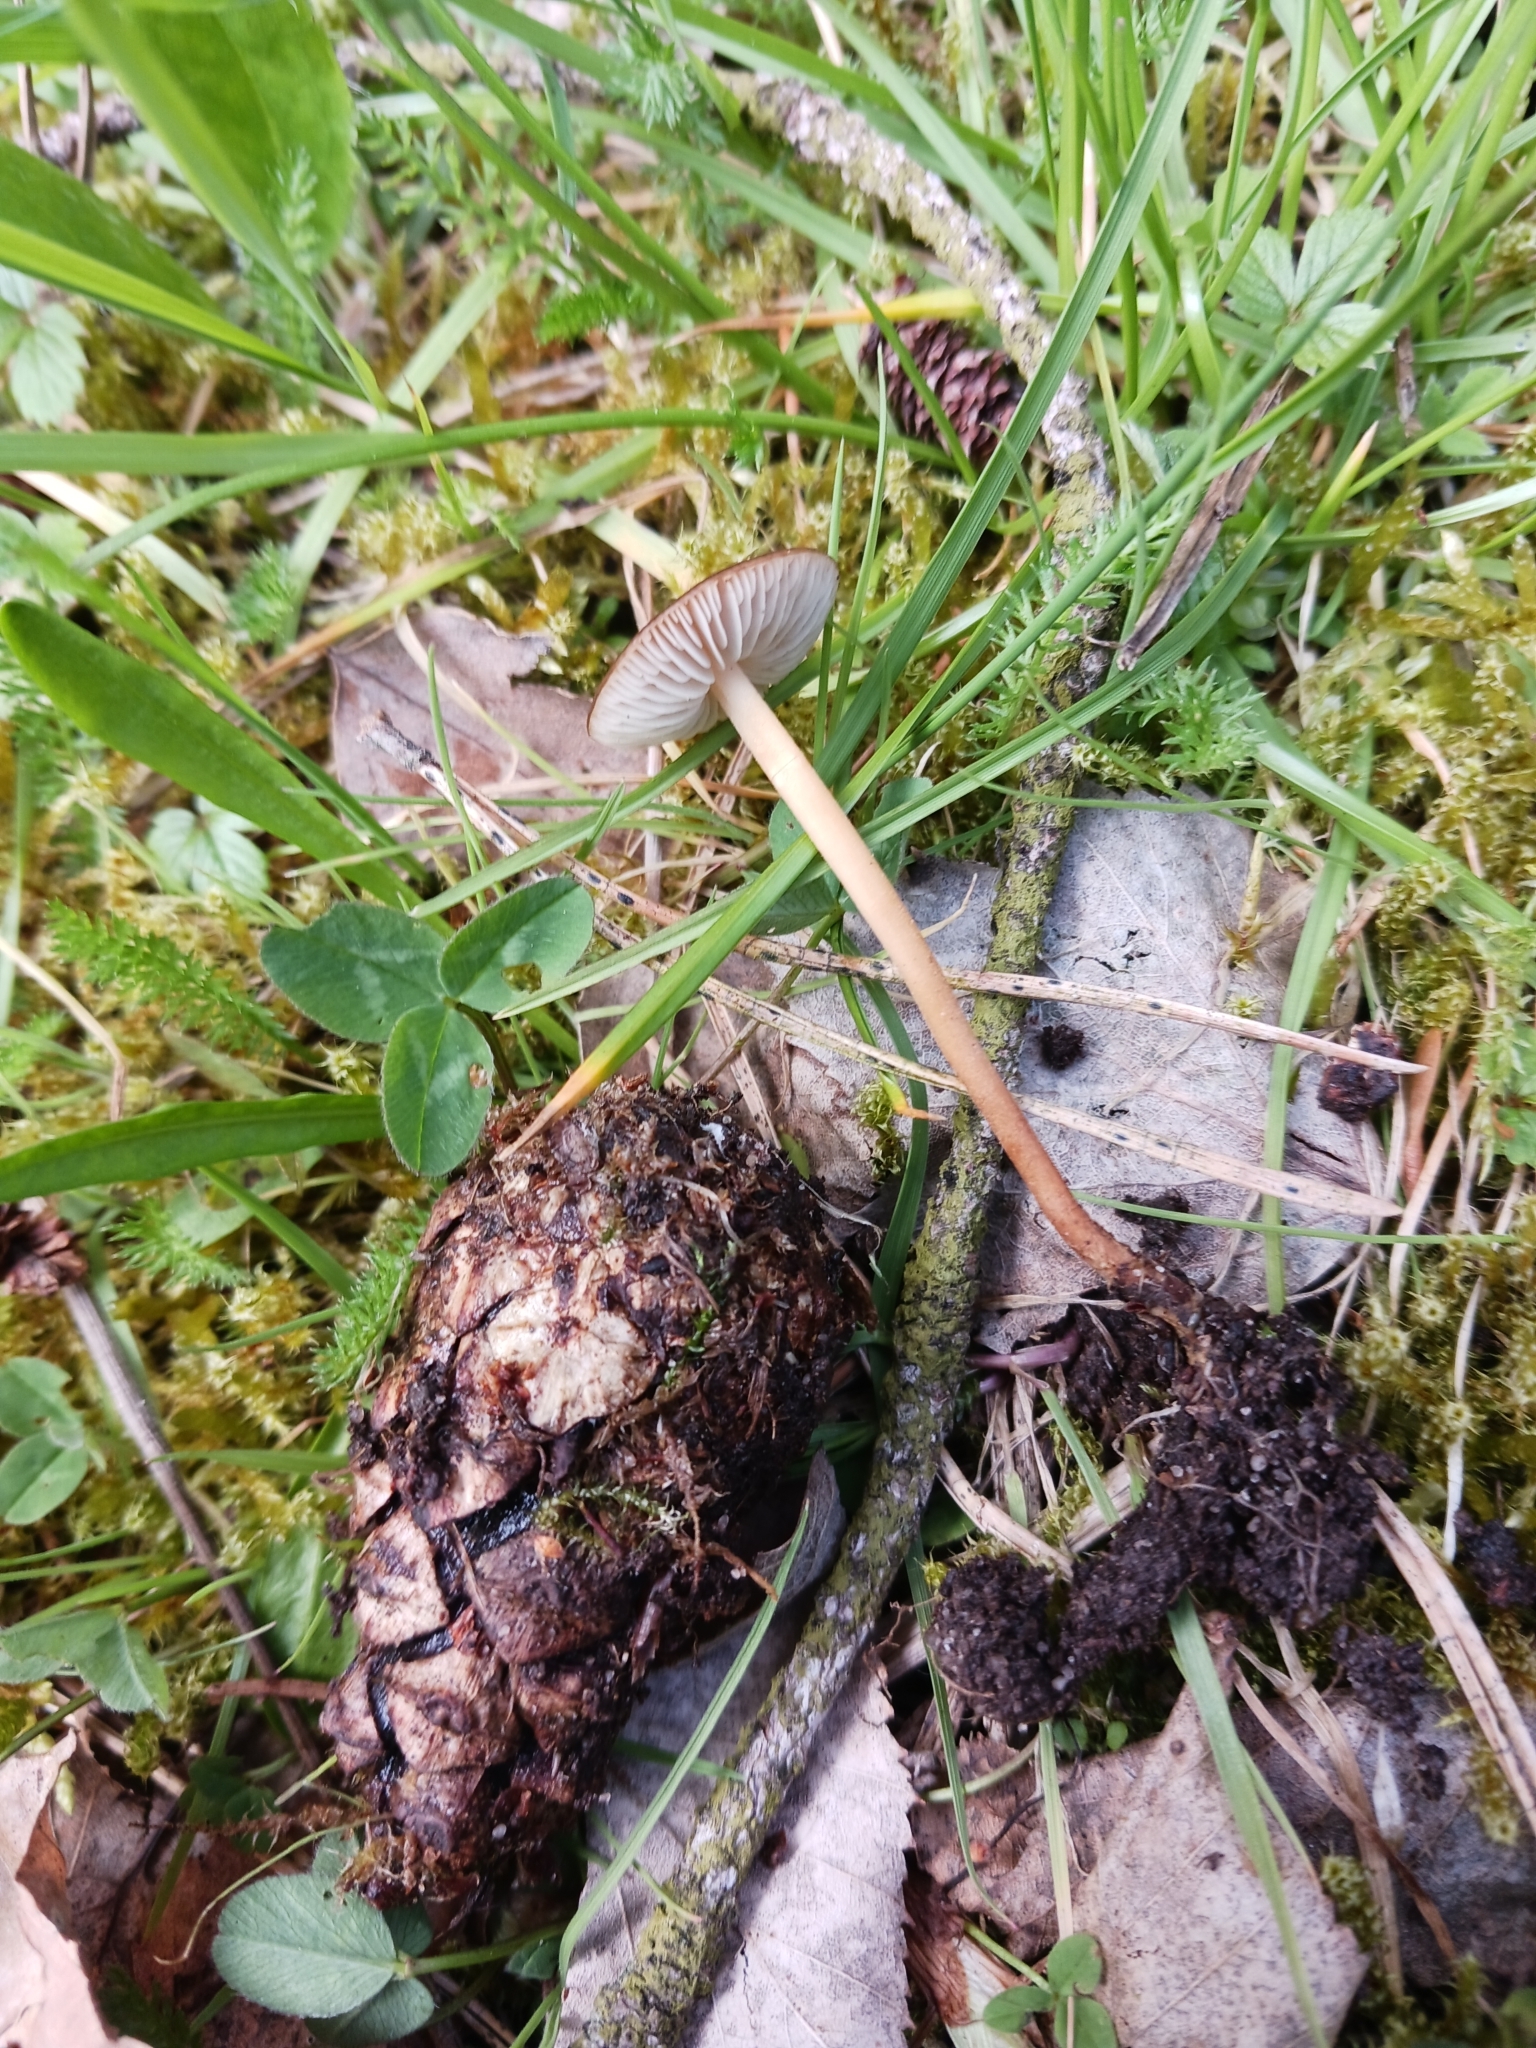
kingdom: Fungi
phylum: Basidiomycota
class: Agaricomycetes
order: Agaricales
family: Physalacriaceae
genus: Strobilurus
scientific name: Strobilurus tenacellus
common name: Pinecone cap
